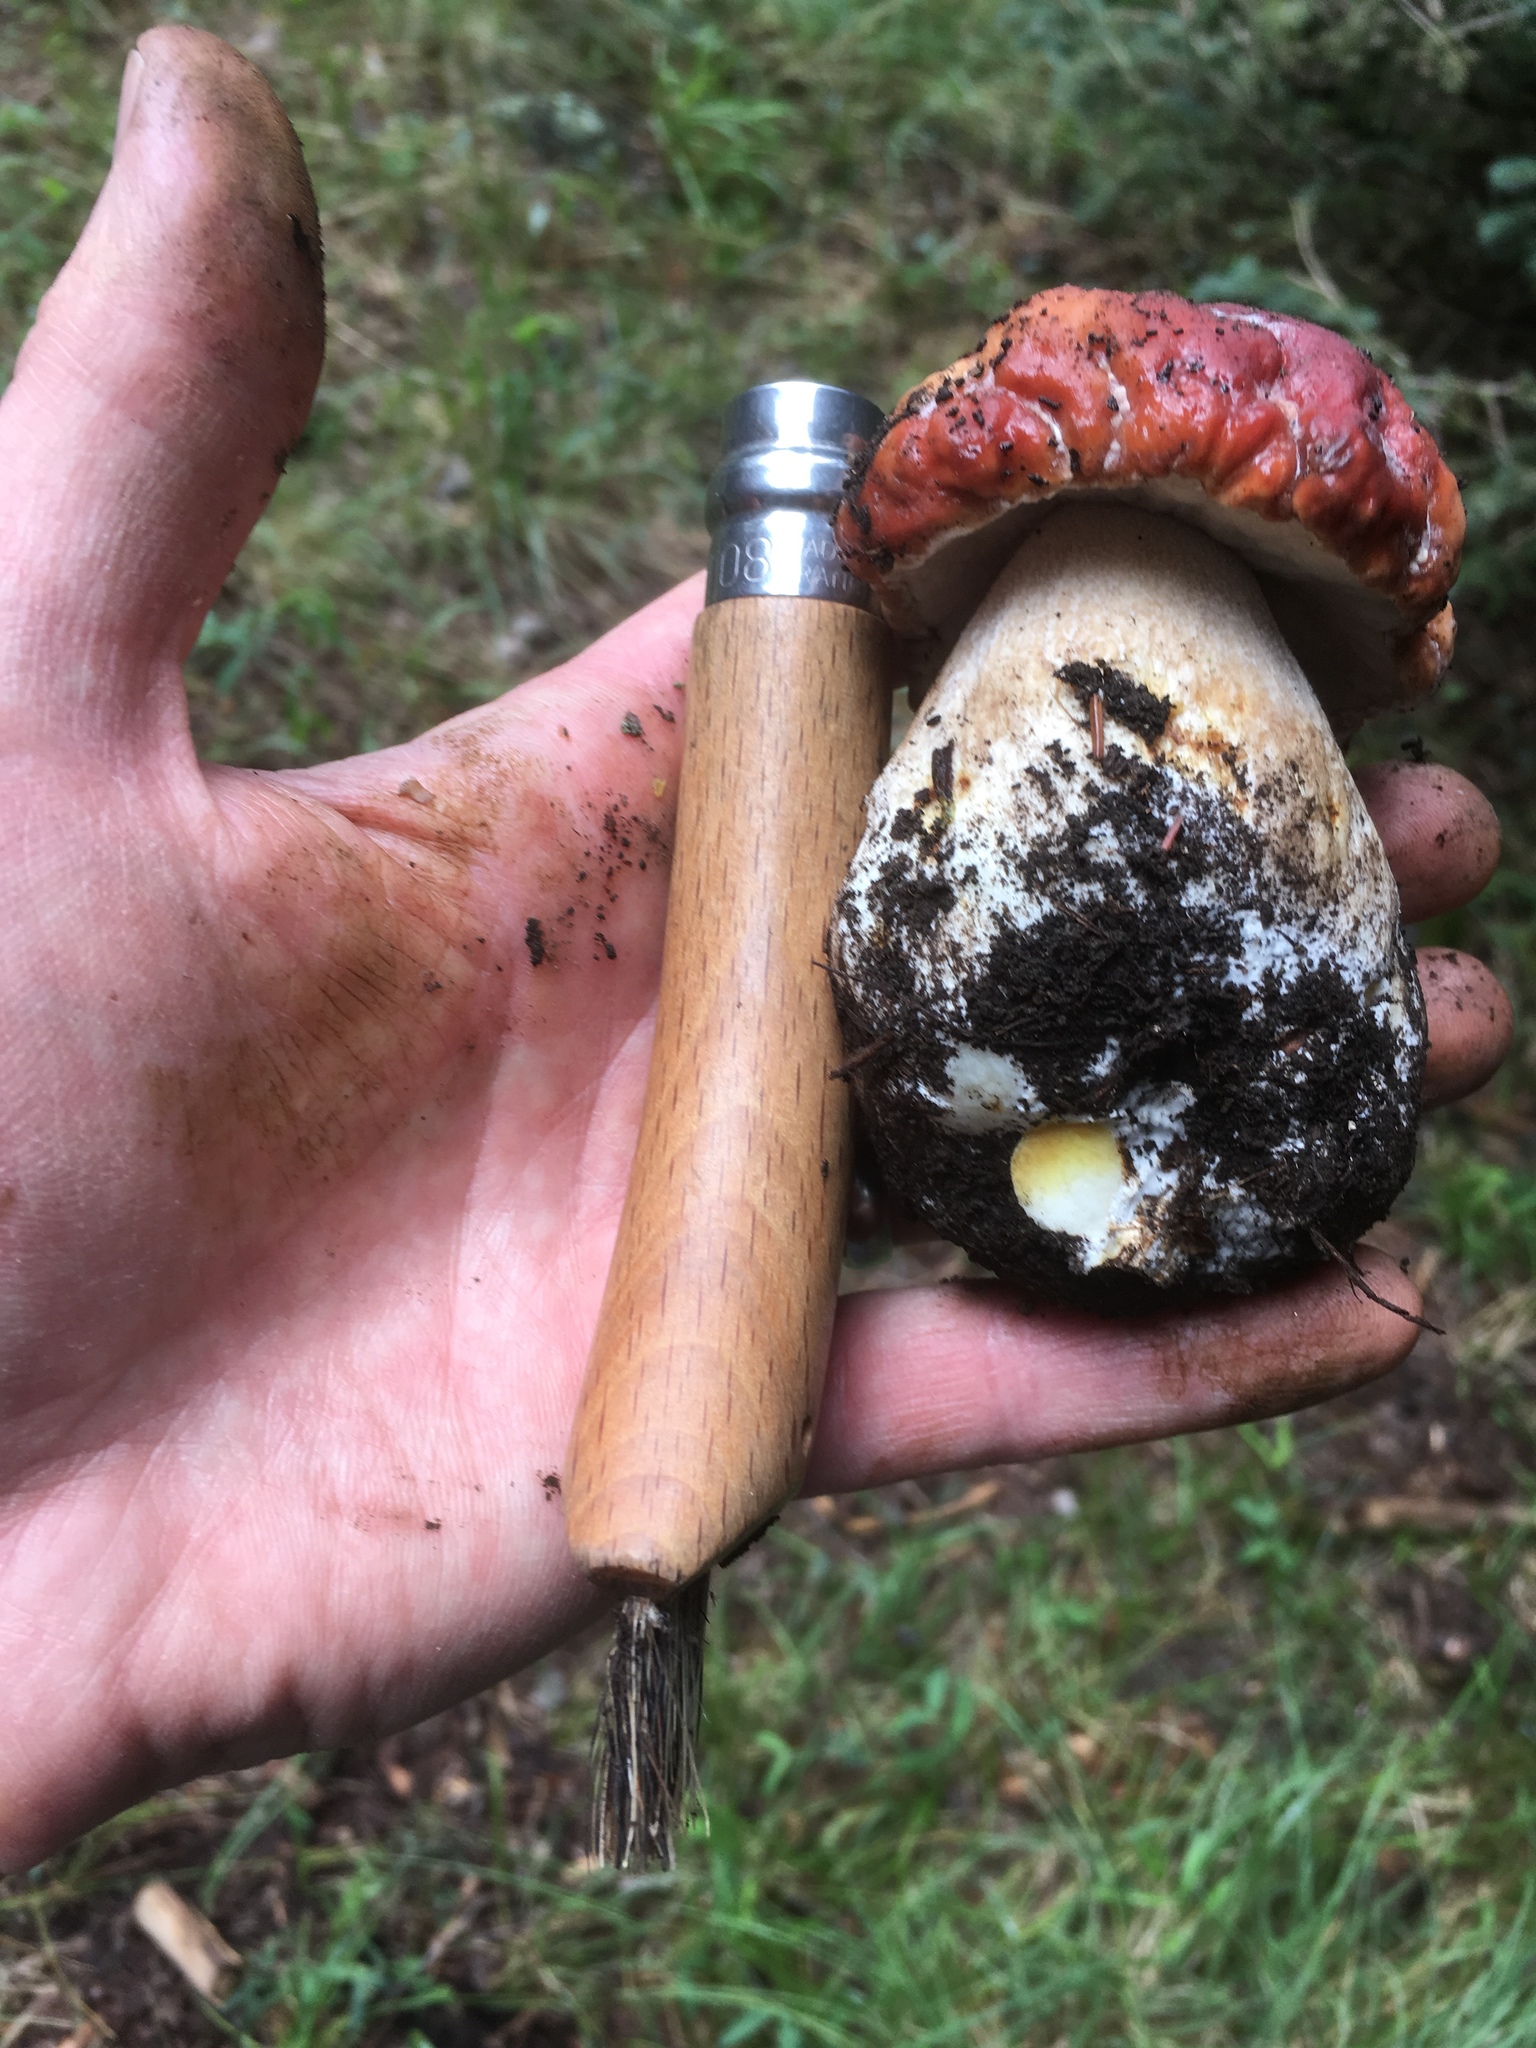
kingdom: Fungi
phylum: Basidiomycota
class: Agaricomycetes
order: Boletales
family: Boletaceae
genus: Boletus
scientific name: Boletus rubriceps
